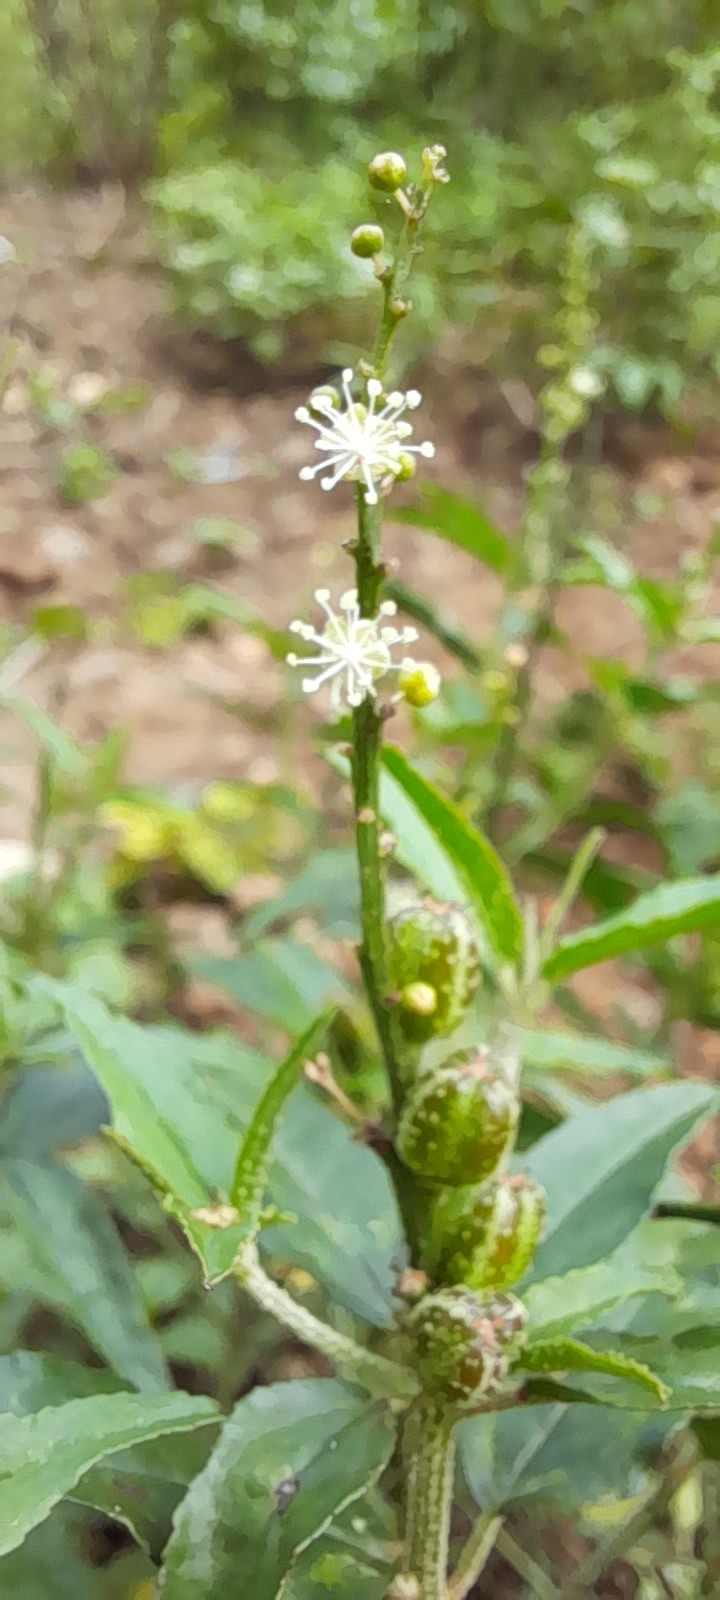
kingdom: Plantae
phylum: Tracheophyta
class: Magnoliopsida
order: Malpighiales
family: Euphorbiaceae
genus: Croton
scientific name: Croton bonplandianus
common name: Bonpland's croton
